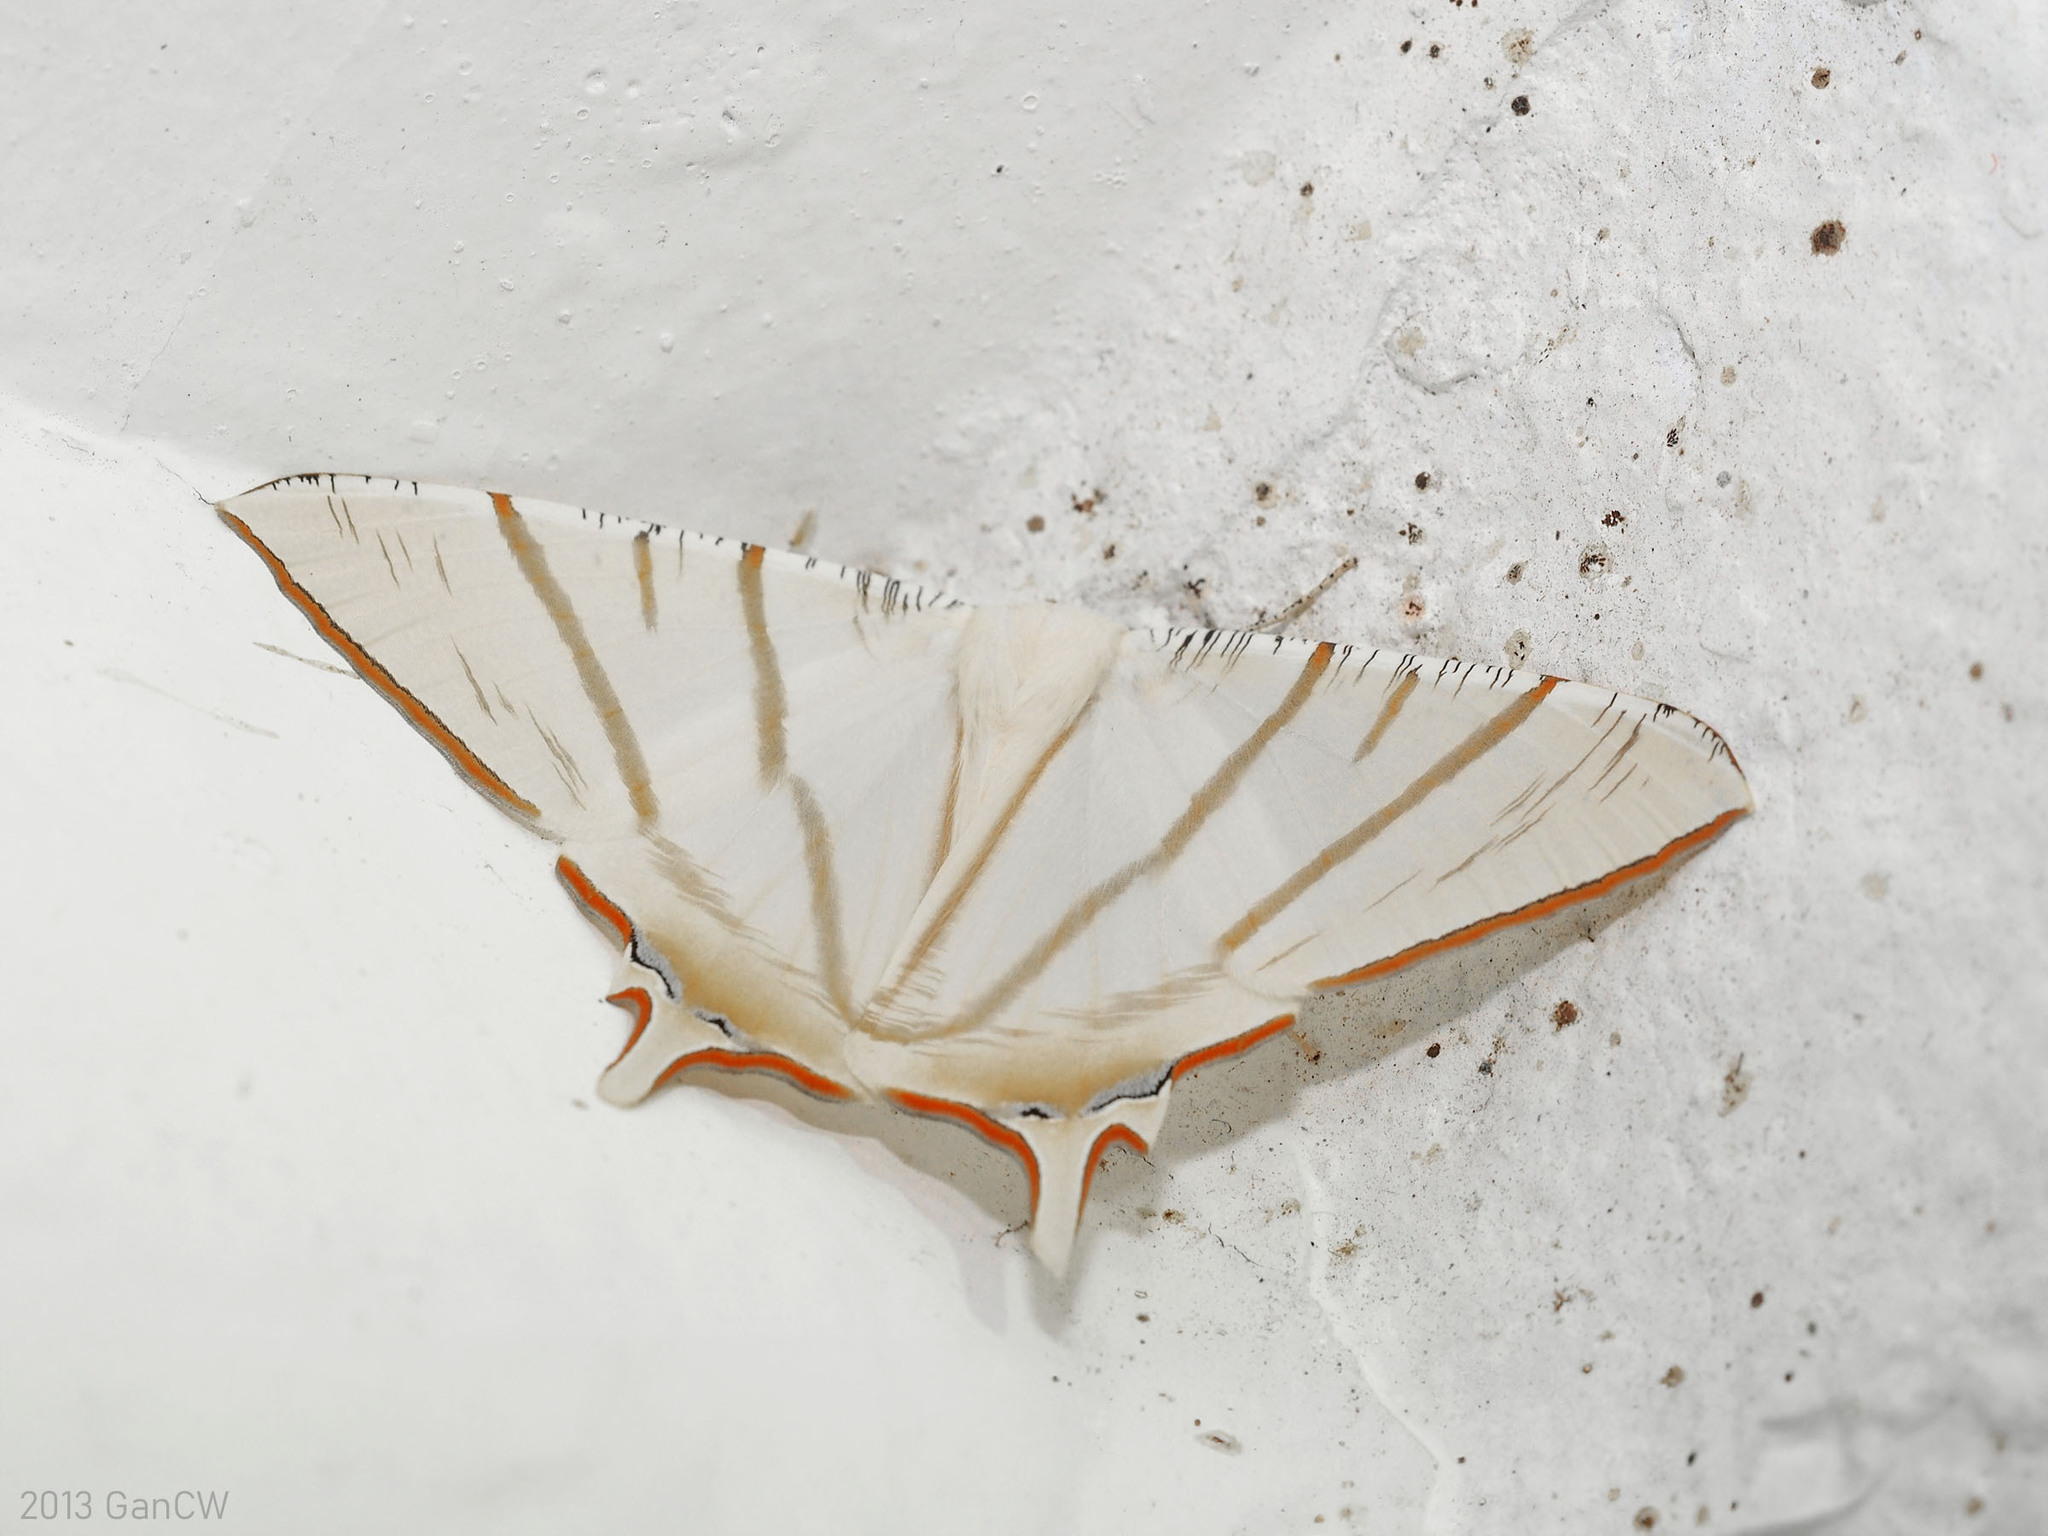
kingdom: Animalia
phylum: Arthropoda
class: Insecta
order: Lepidoptera
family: Geometridae
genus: Ourapteryx
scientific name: Ourapteryx claretta
